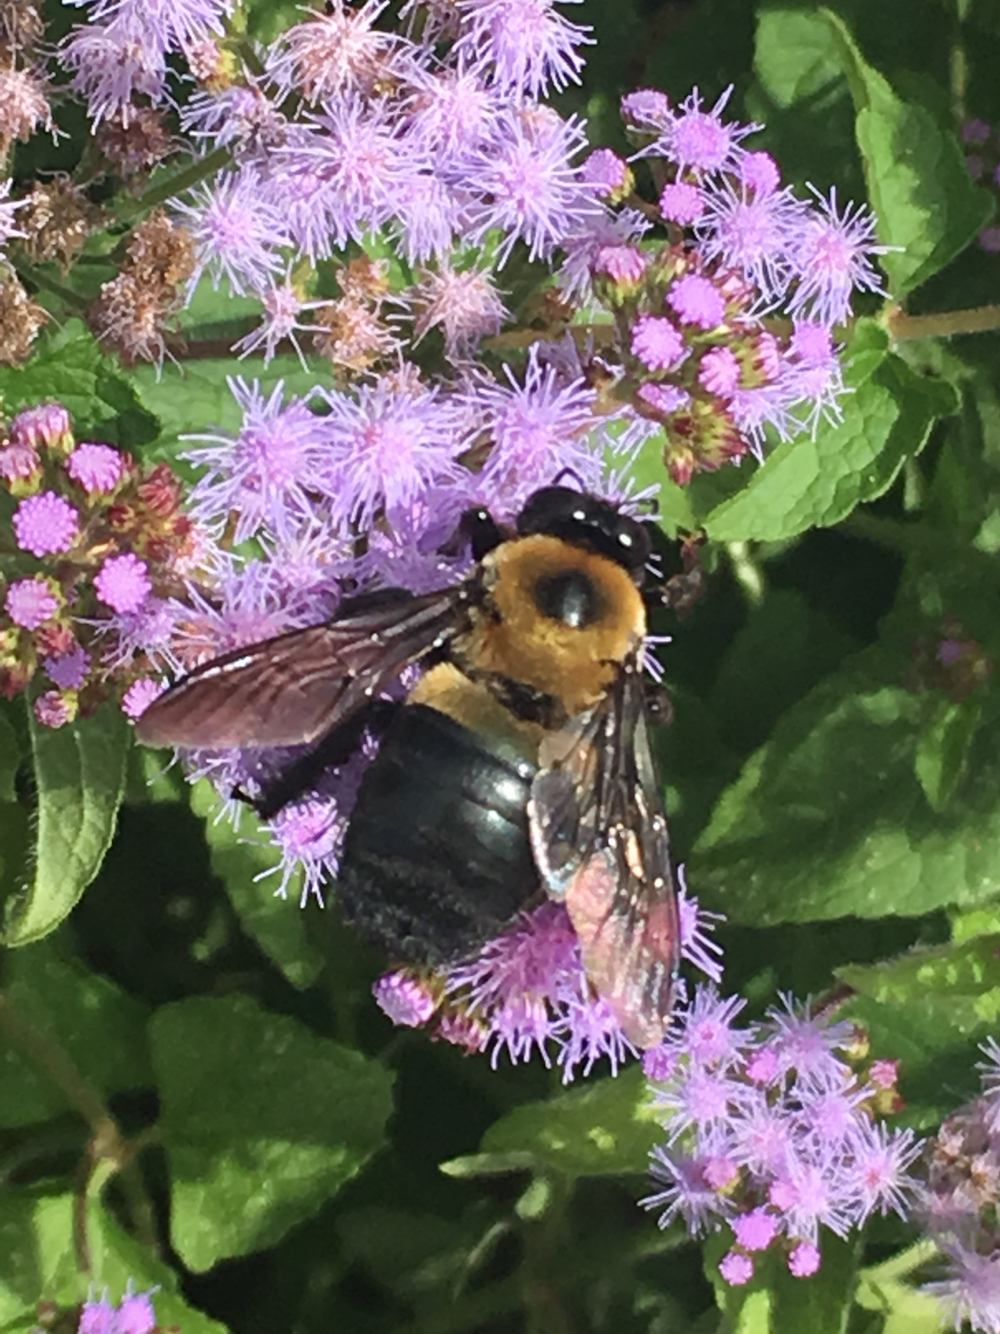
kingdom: Animalia
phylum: Arthropoda
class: Insecta
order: Hymenoptera
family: Apidae
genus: Xylocopa
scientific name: Xylocopa virginica
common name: Carpenter bee
